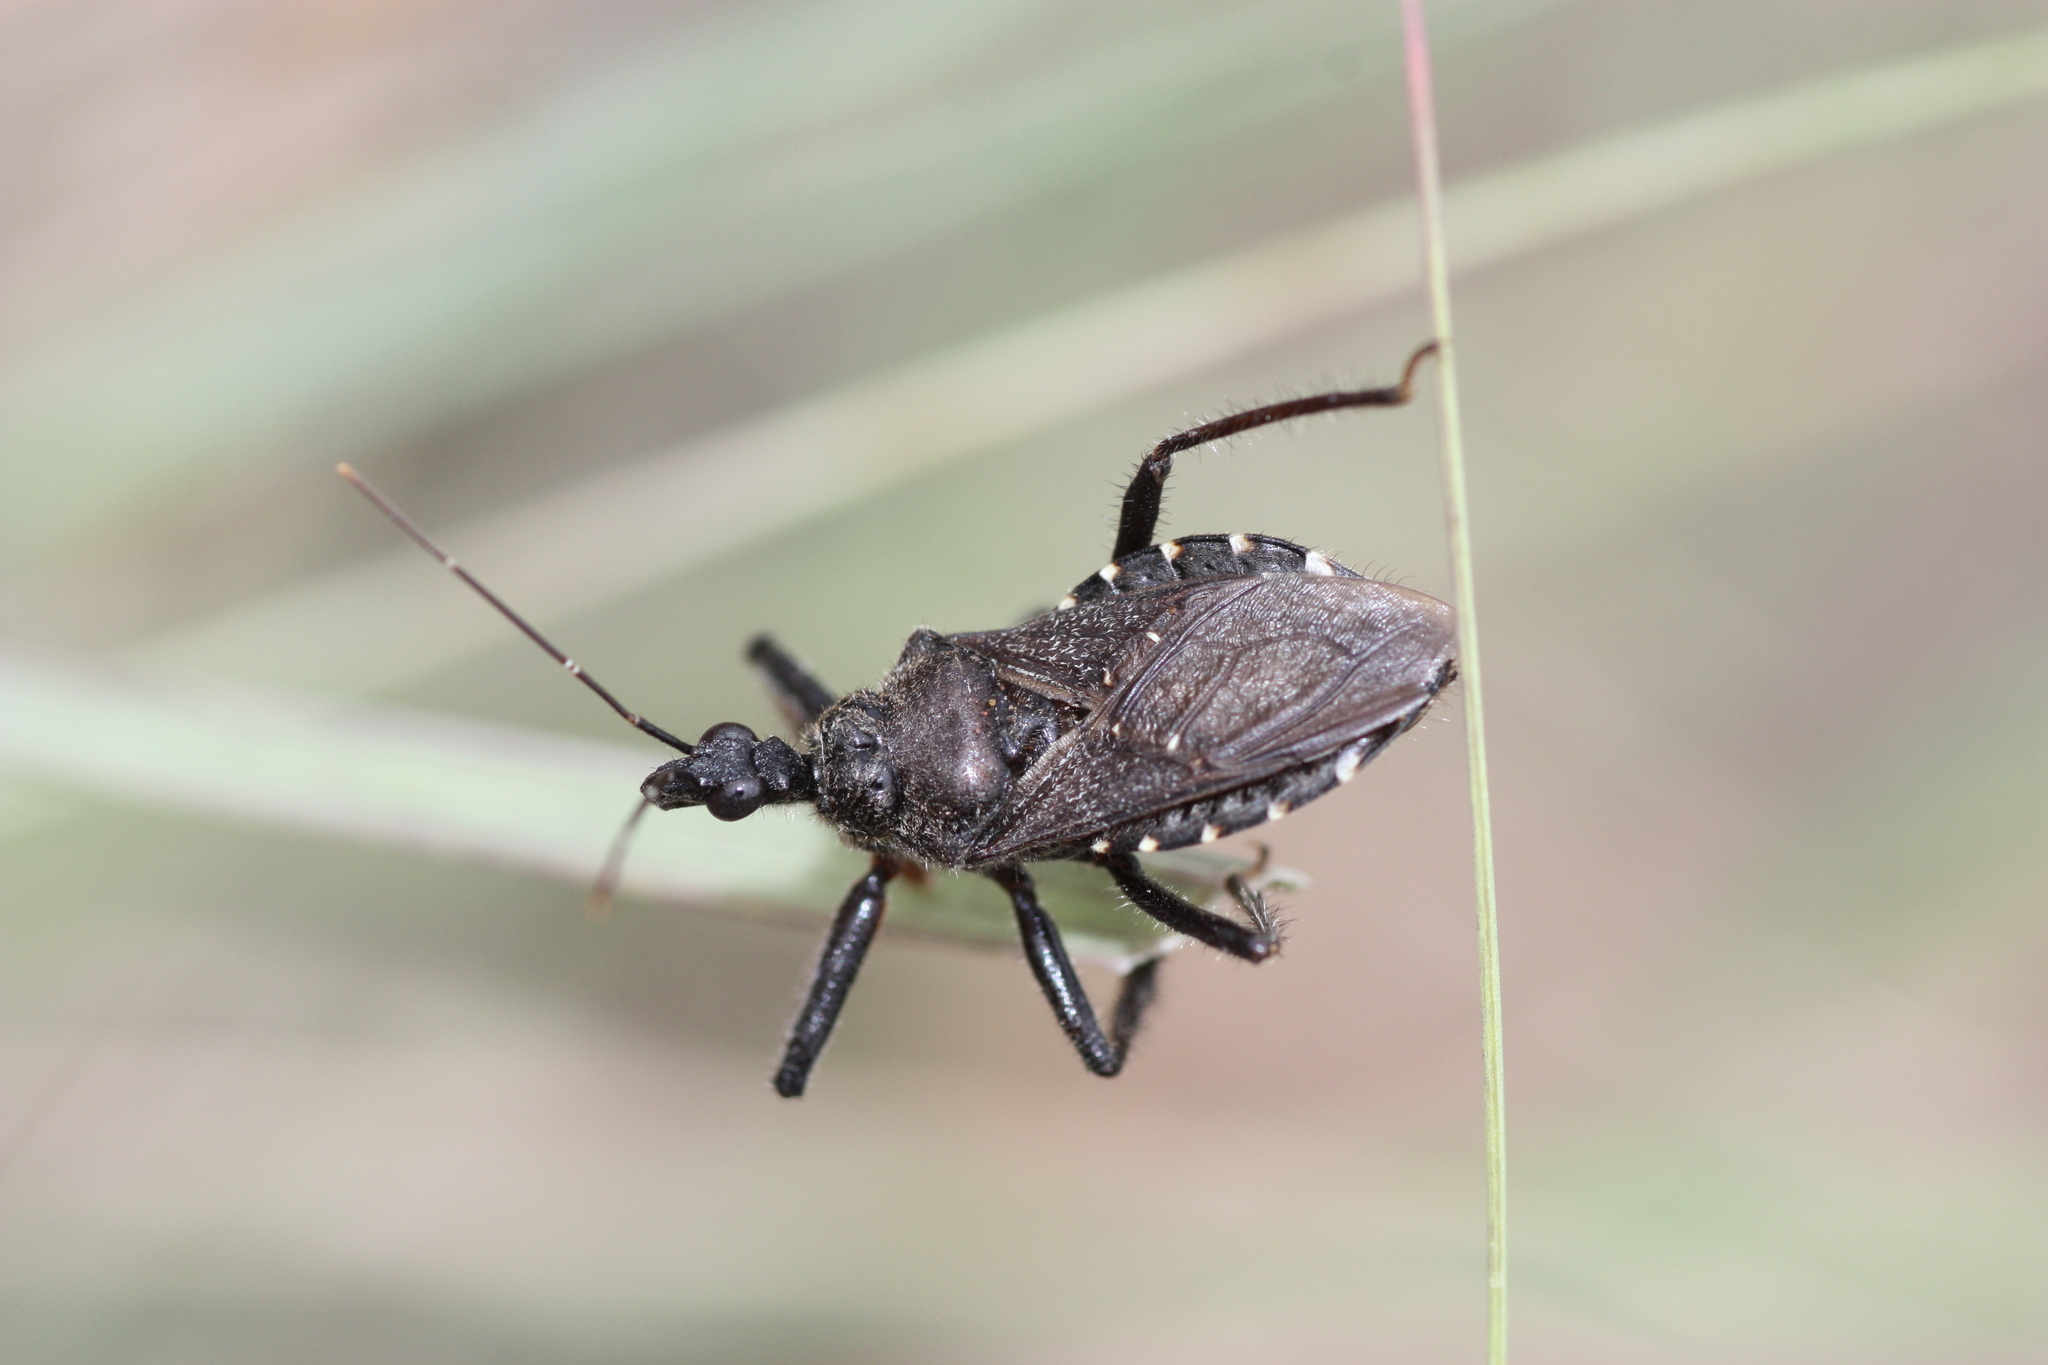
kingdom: Animalia
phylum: Arthropoda
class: Insecta
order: Hemiptera
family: Reduviidae
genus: Apiomerus
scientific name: Apiomerus longispinis
